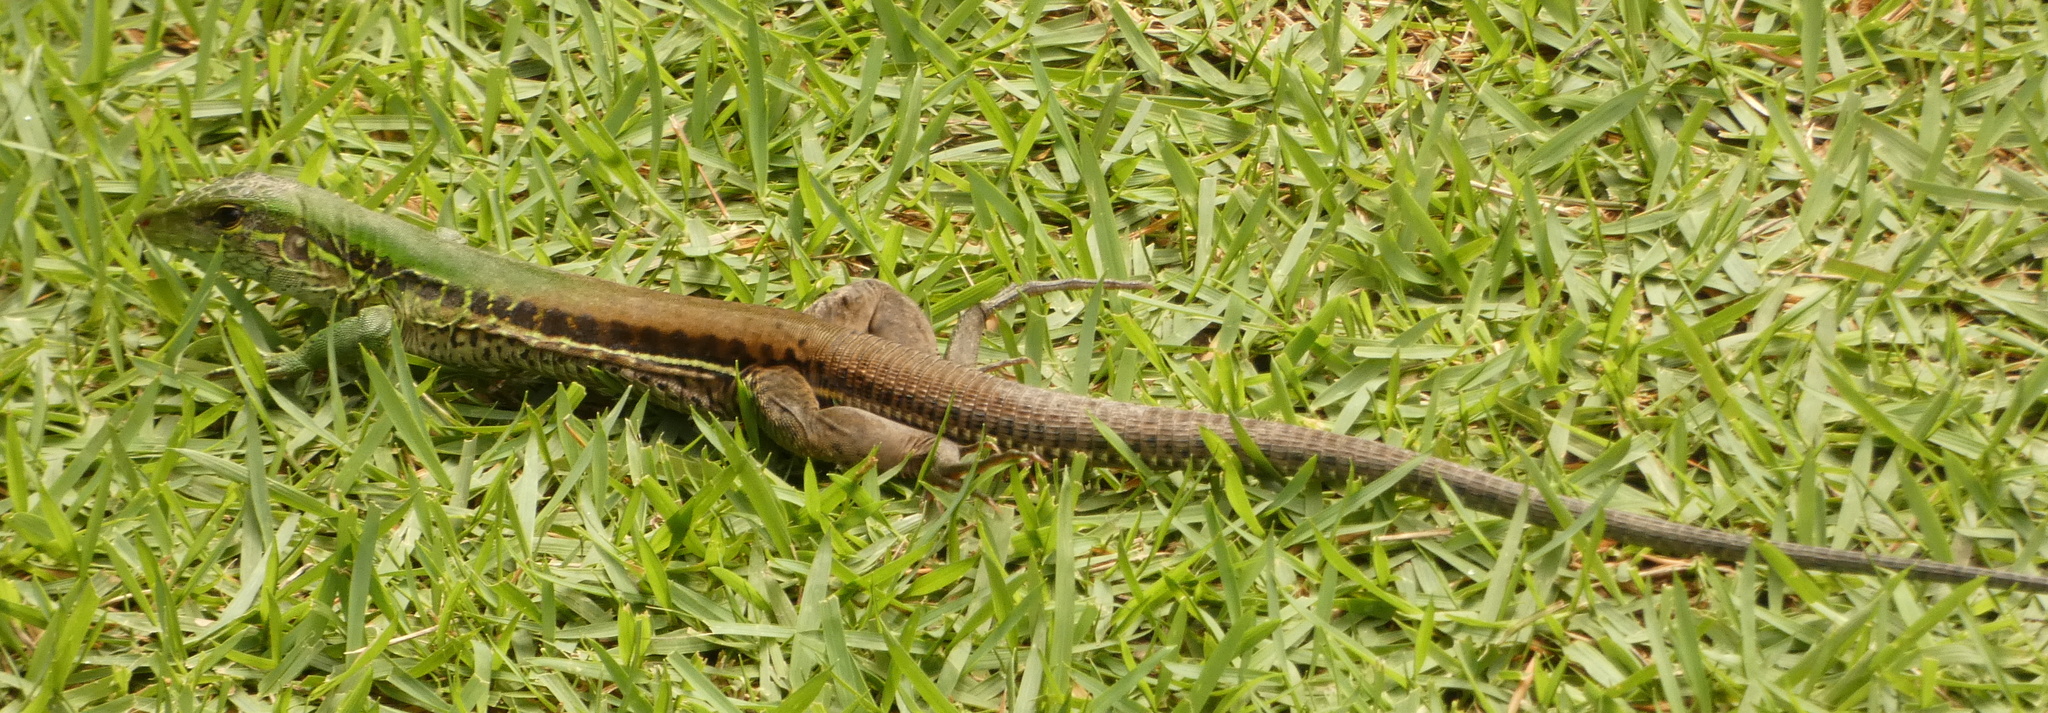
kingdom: Animalia
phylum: Chordata
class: Squamata
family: Teiidae
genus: Ameiva
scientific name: Ameiva ameiva
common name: Giant ameiva
